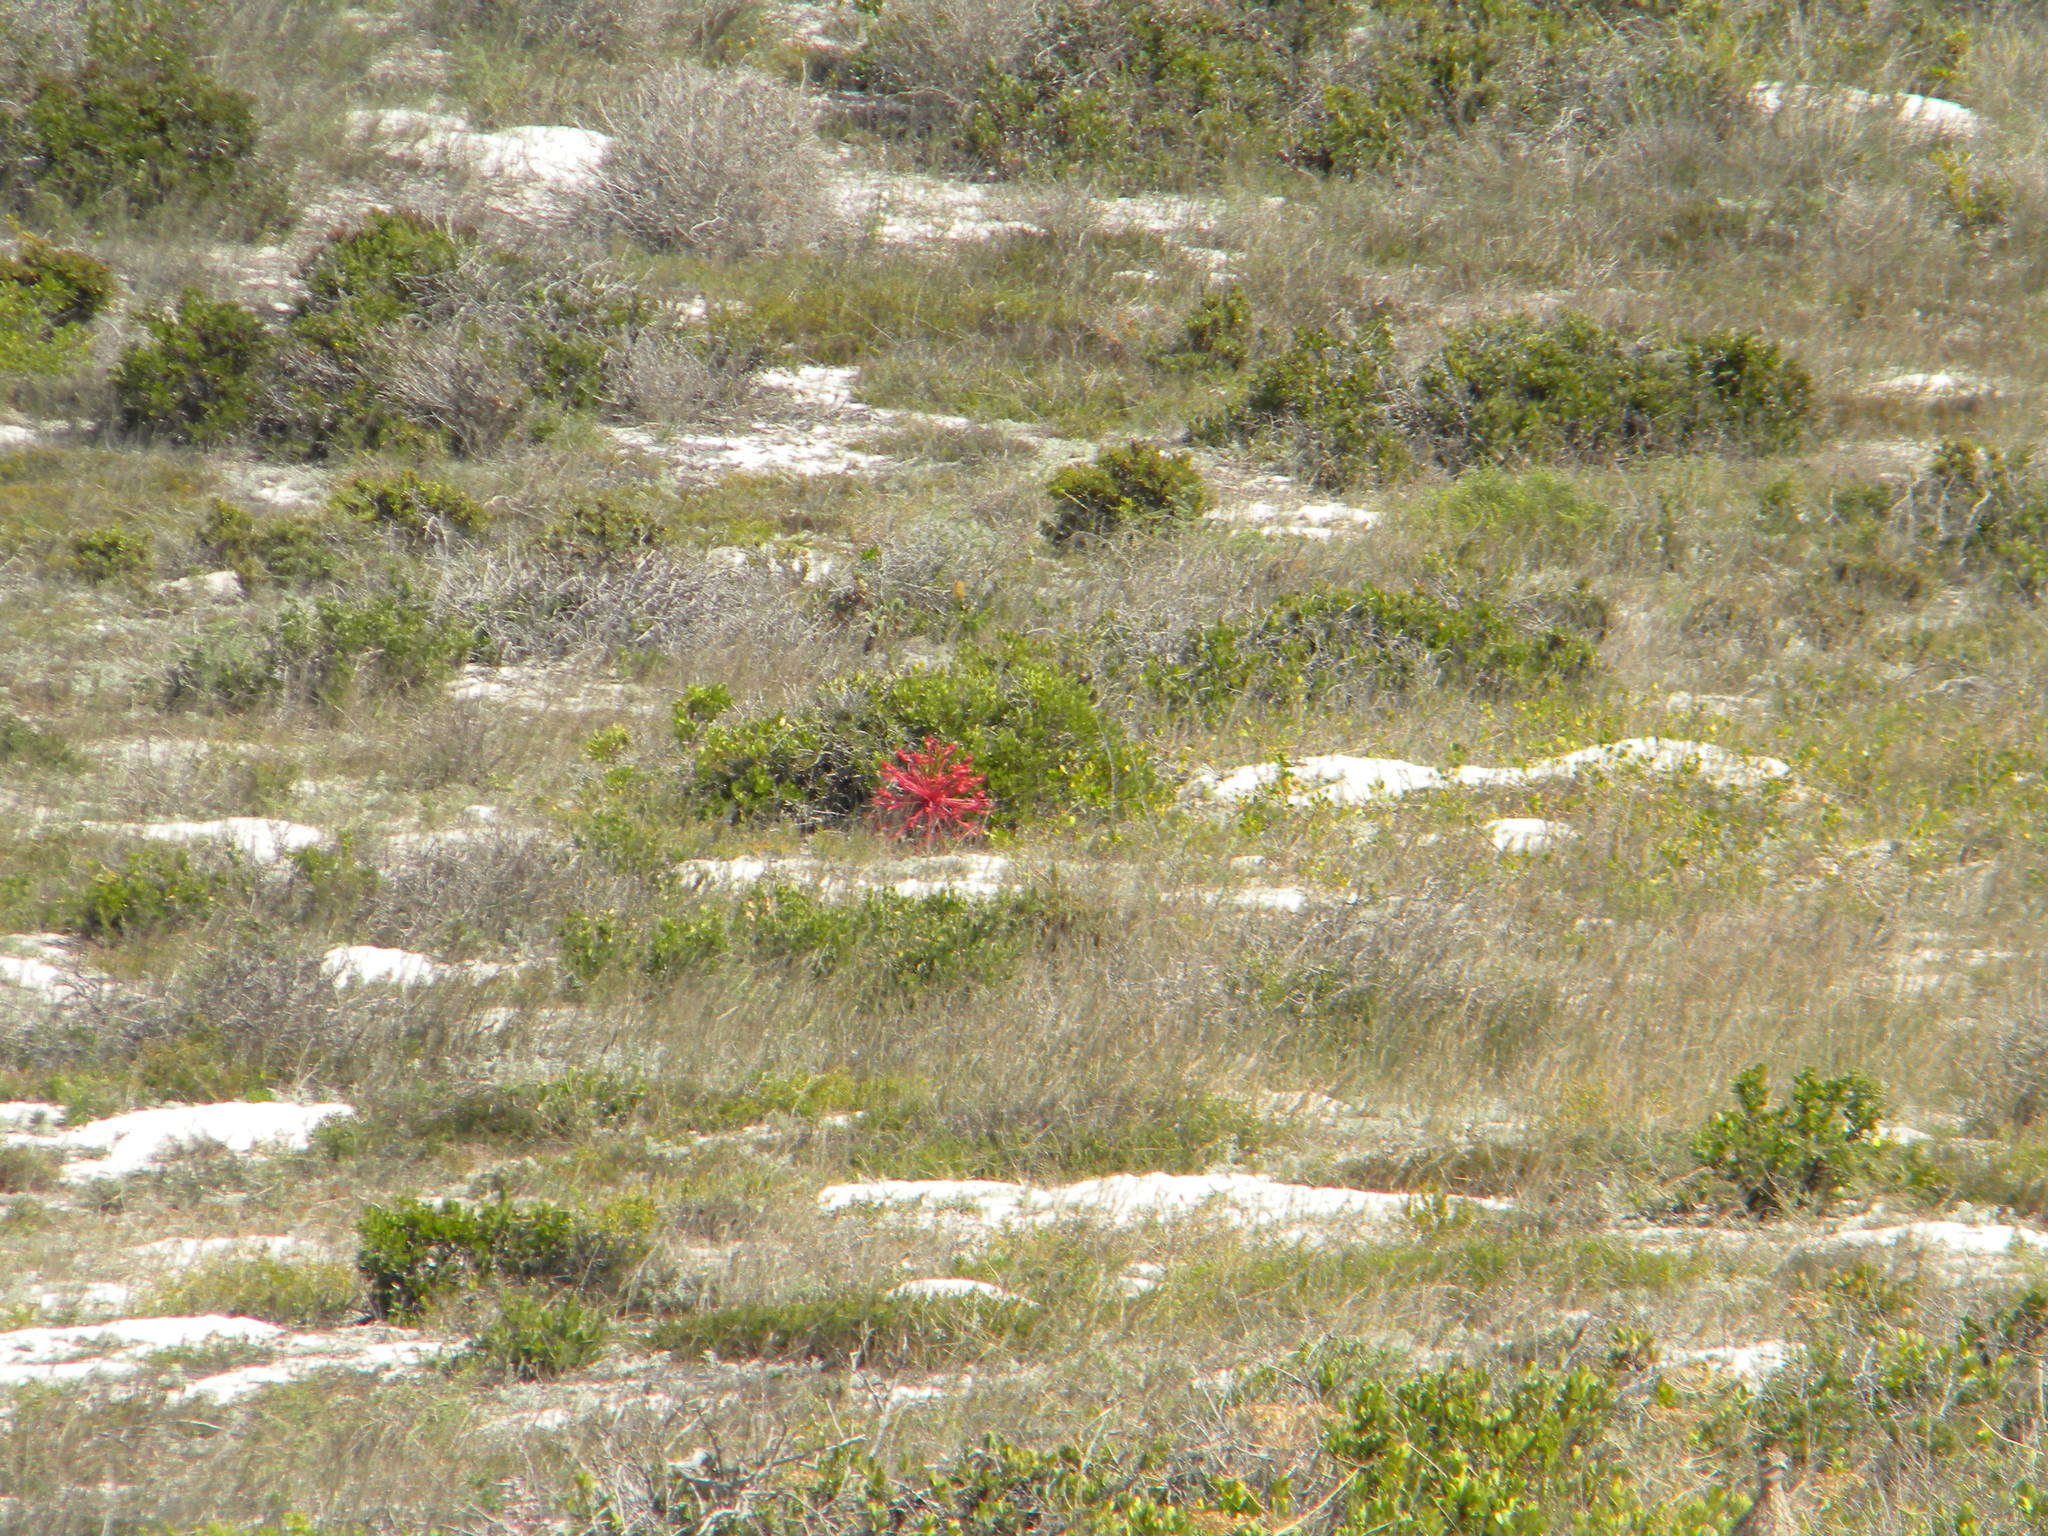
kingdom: Plantae
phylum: Tracheophyta
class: Liliopsida
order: Asparagales
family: Amaryllidaceae
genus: Brunsvigia
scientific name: Brunsvigia orientalis
